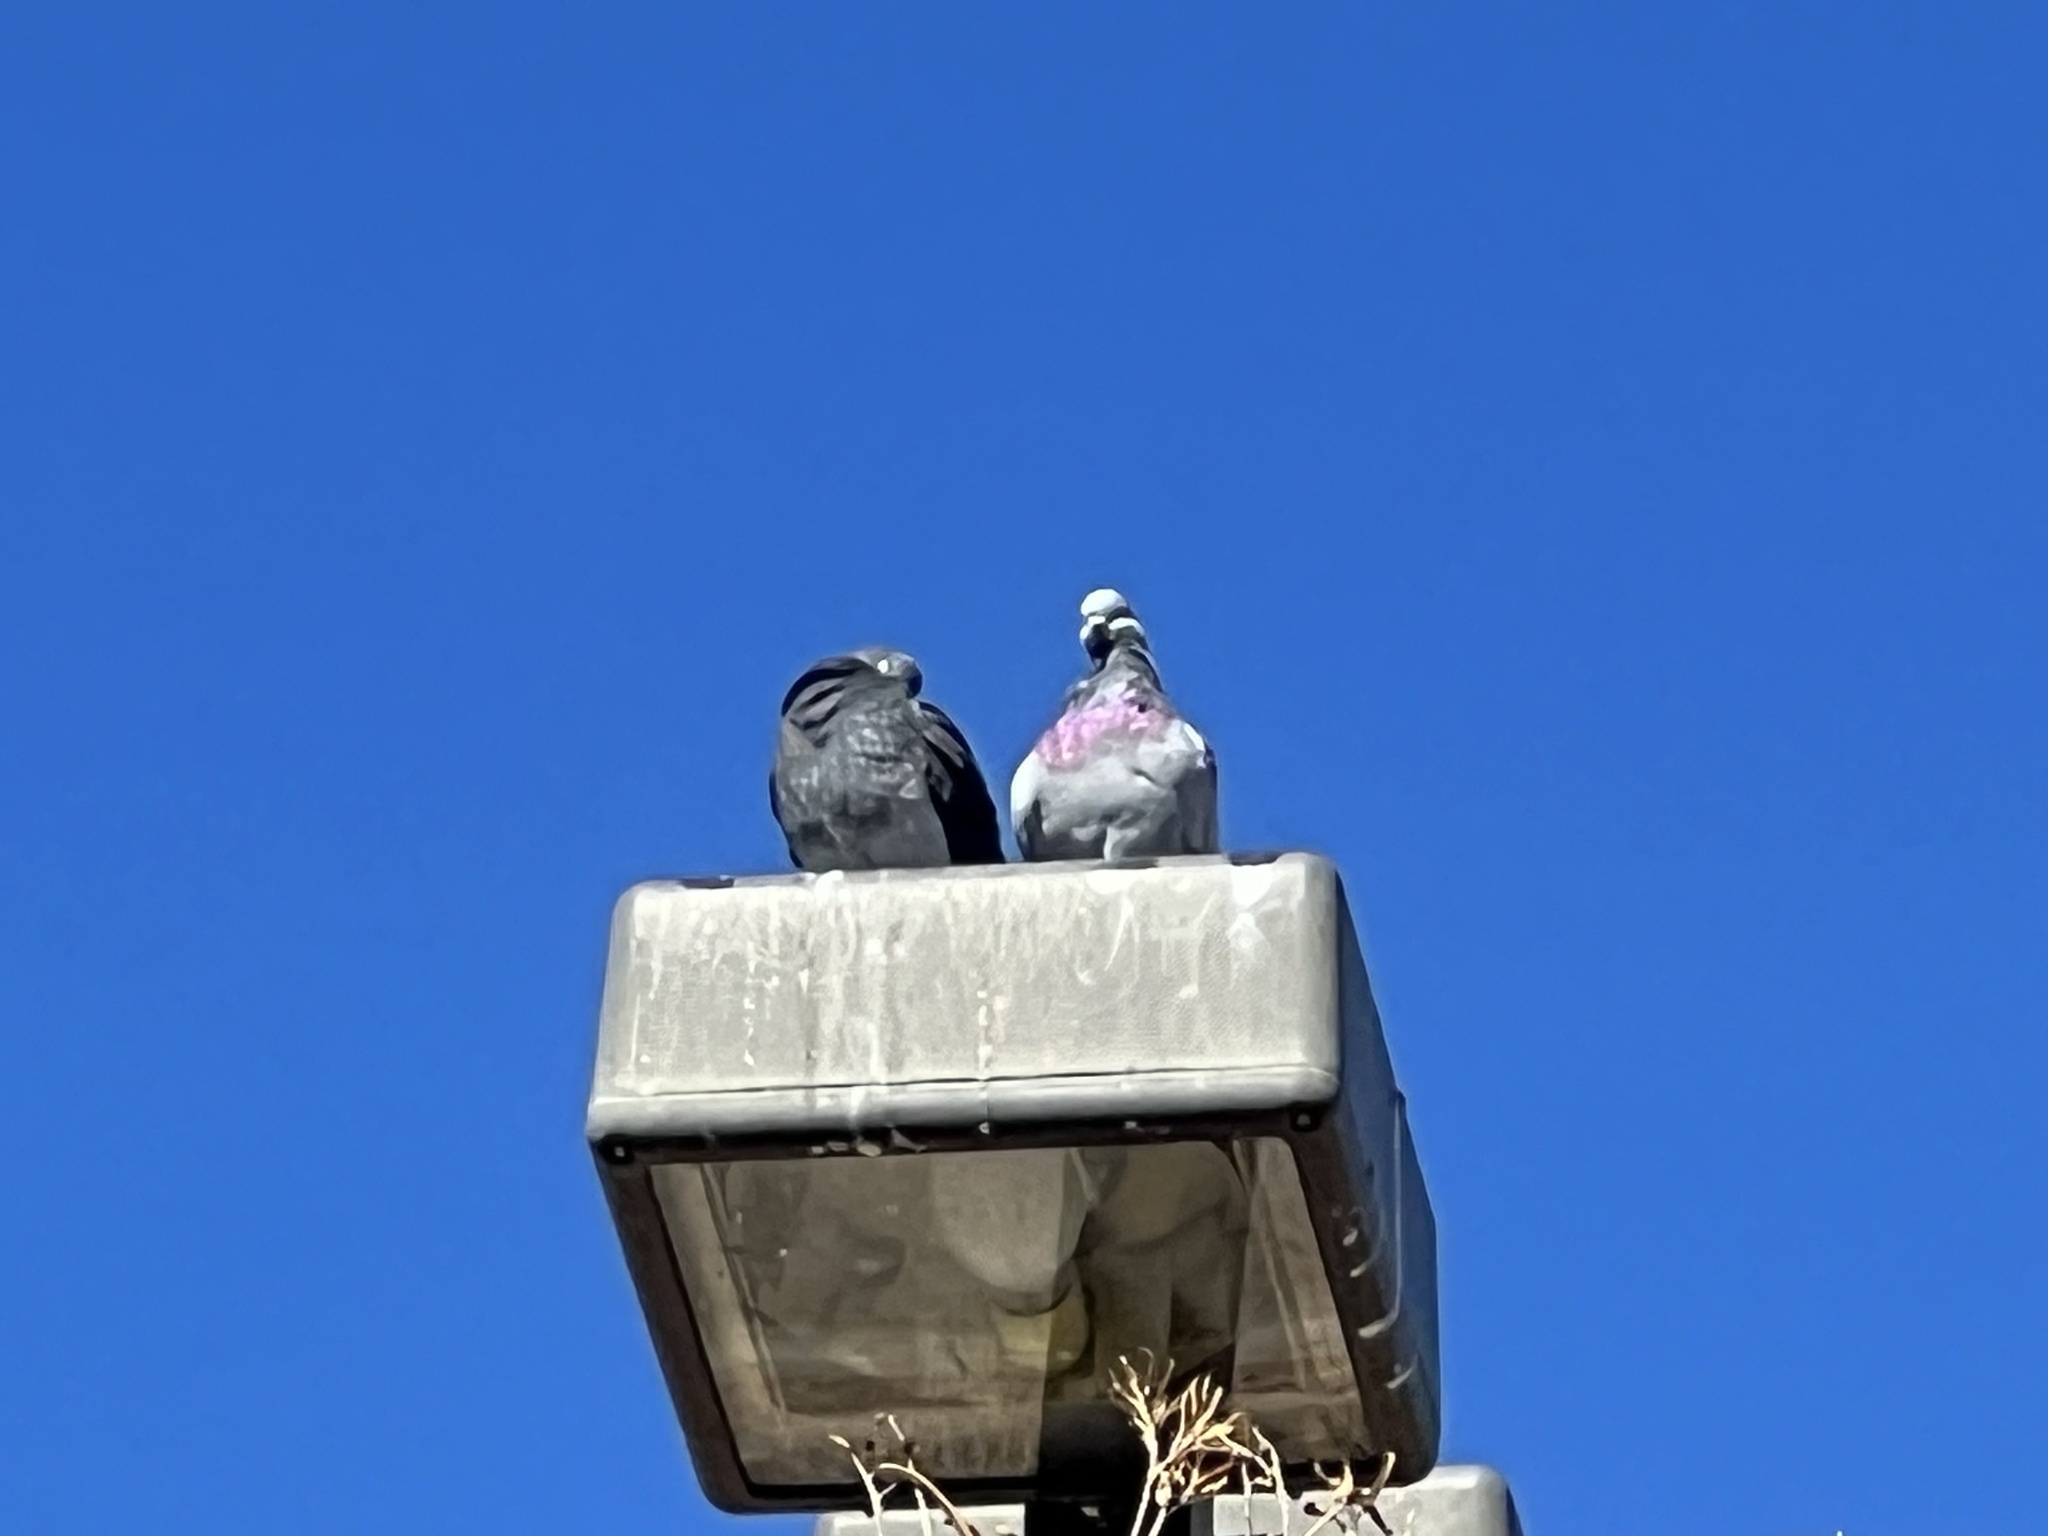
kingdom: Animalia
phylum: Chordata
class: Aves
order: Columbiformes
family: Columbidae
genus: Columba
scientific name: Columba livia
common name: Rock pigeon
